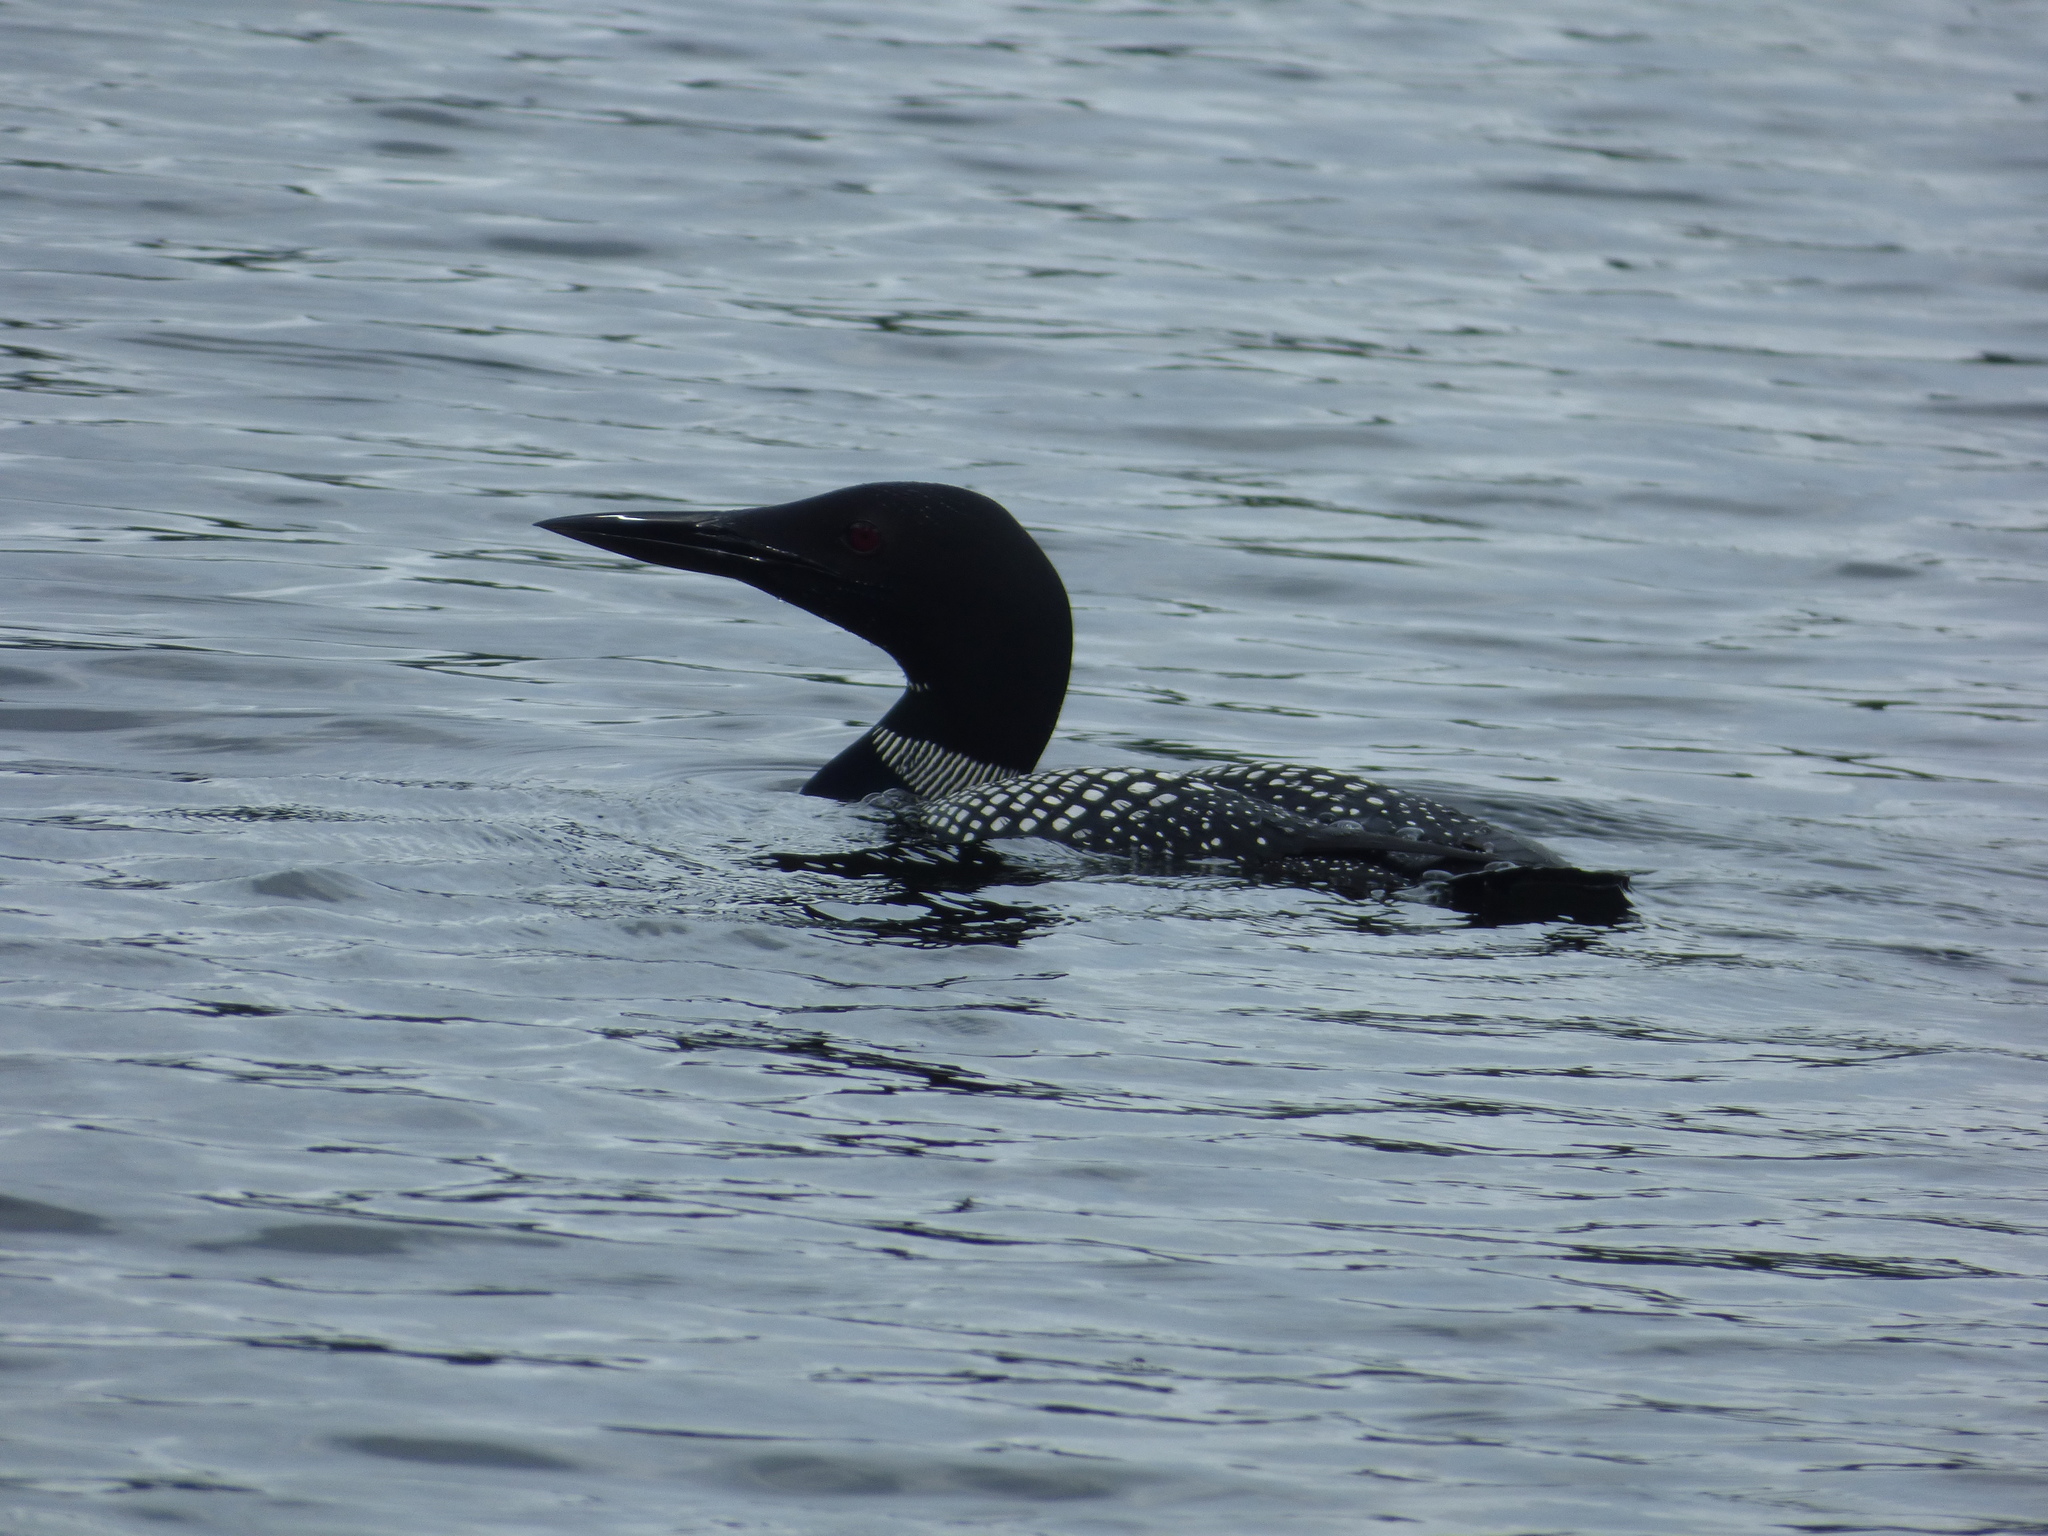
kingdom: Animalia
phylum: Chordata
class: Aves
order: Gaviiformes
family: Gaviidae
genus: Gavia
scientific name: Gavia immer
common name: Common loon
